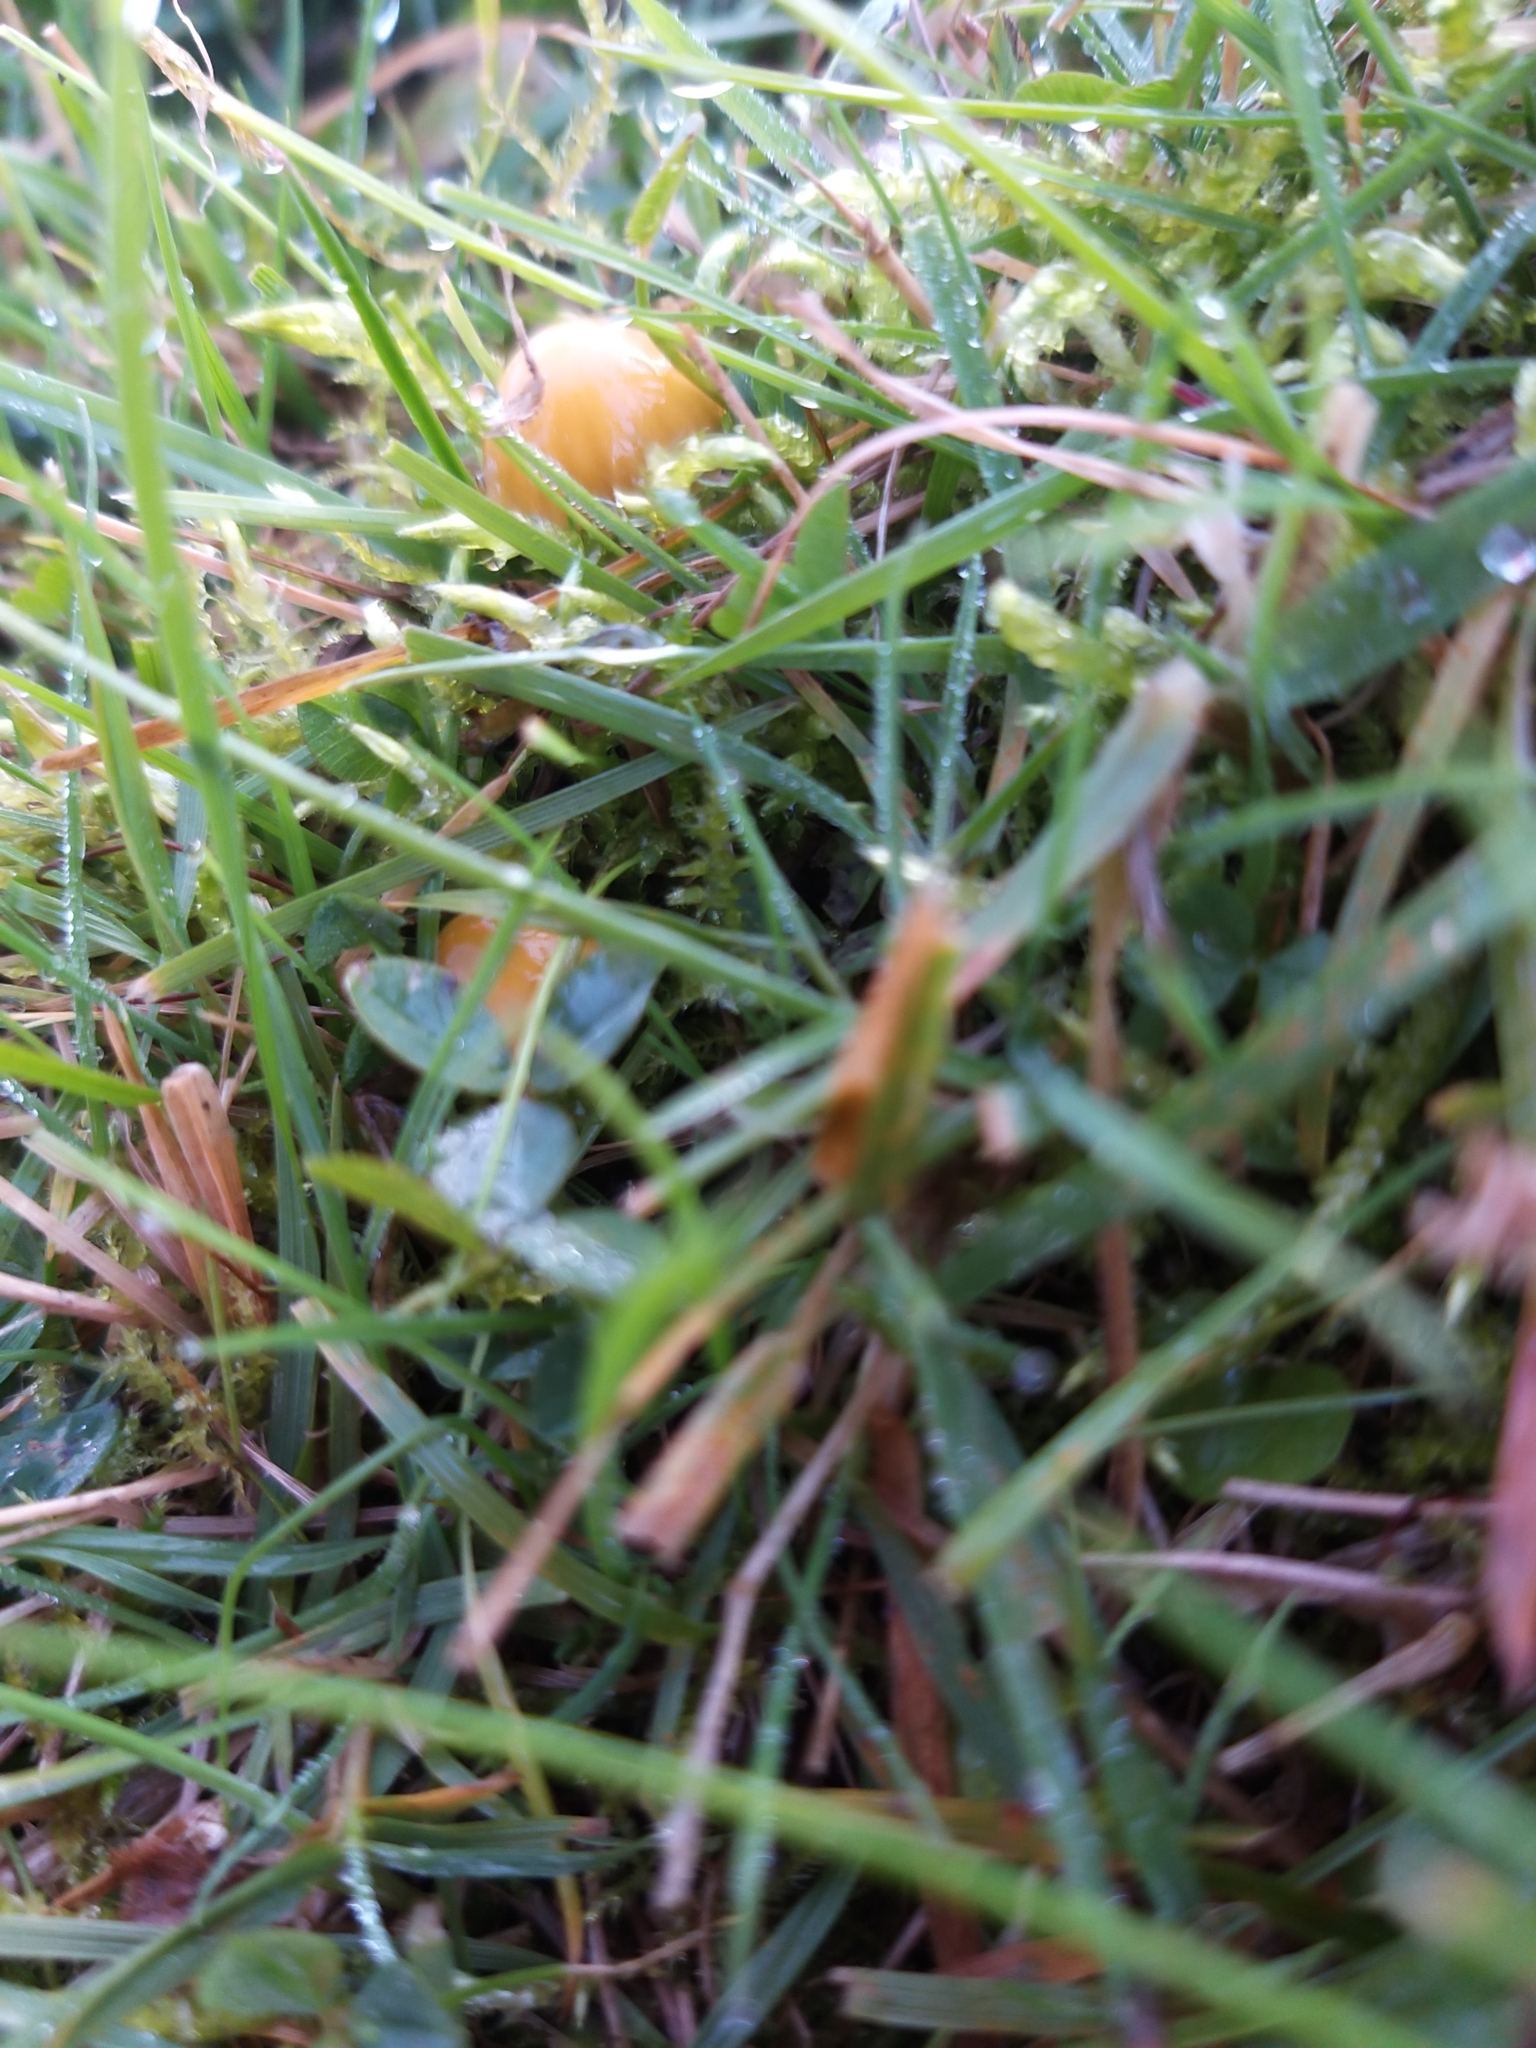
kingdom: Fungi
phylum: Basidiomycota
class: Agaricomycetes
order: Agaricales
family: Hygrophoraceae
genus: Gliophorus
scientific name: Gliophorus psittacinus
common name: Parrot wax-cap
